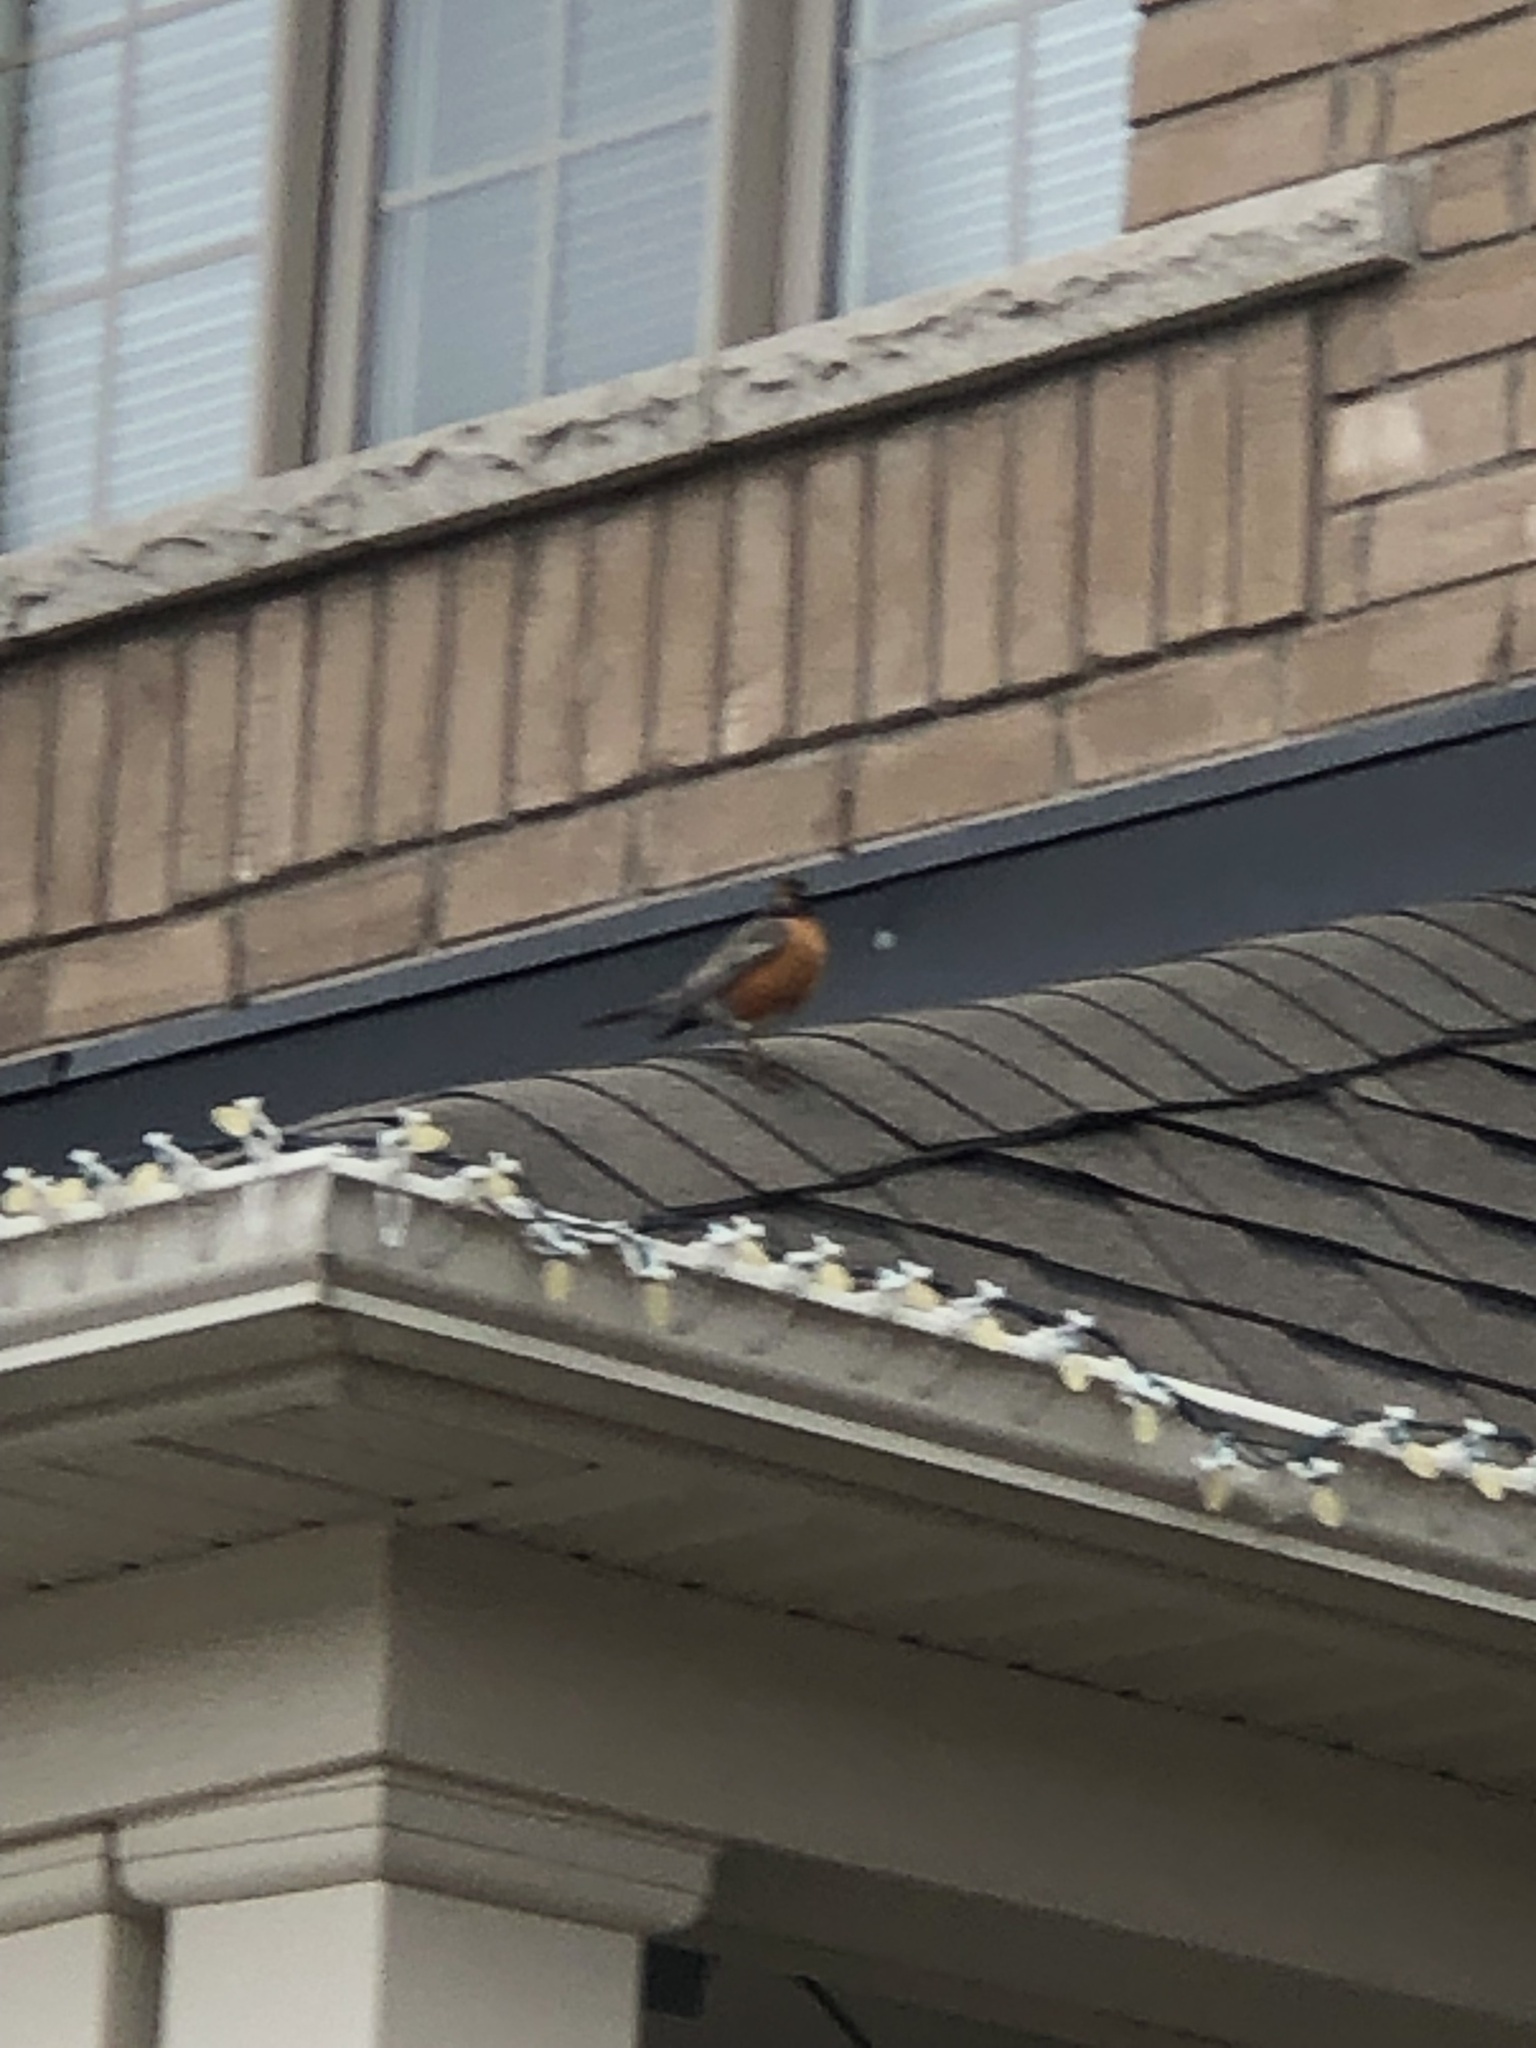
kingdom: Animalia
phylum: Chordata
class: Aves
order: Passeriformes
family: Turdidae
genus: Turdus
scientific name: Turdus migratorius
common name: American robin
